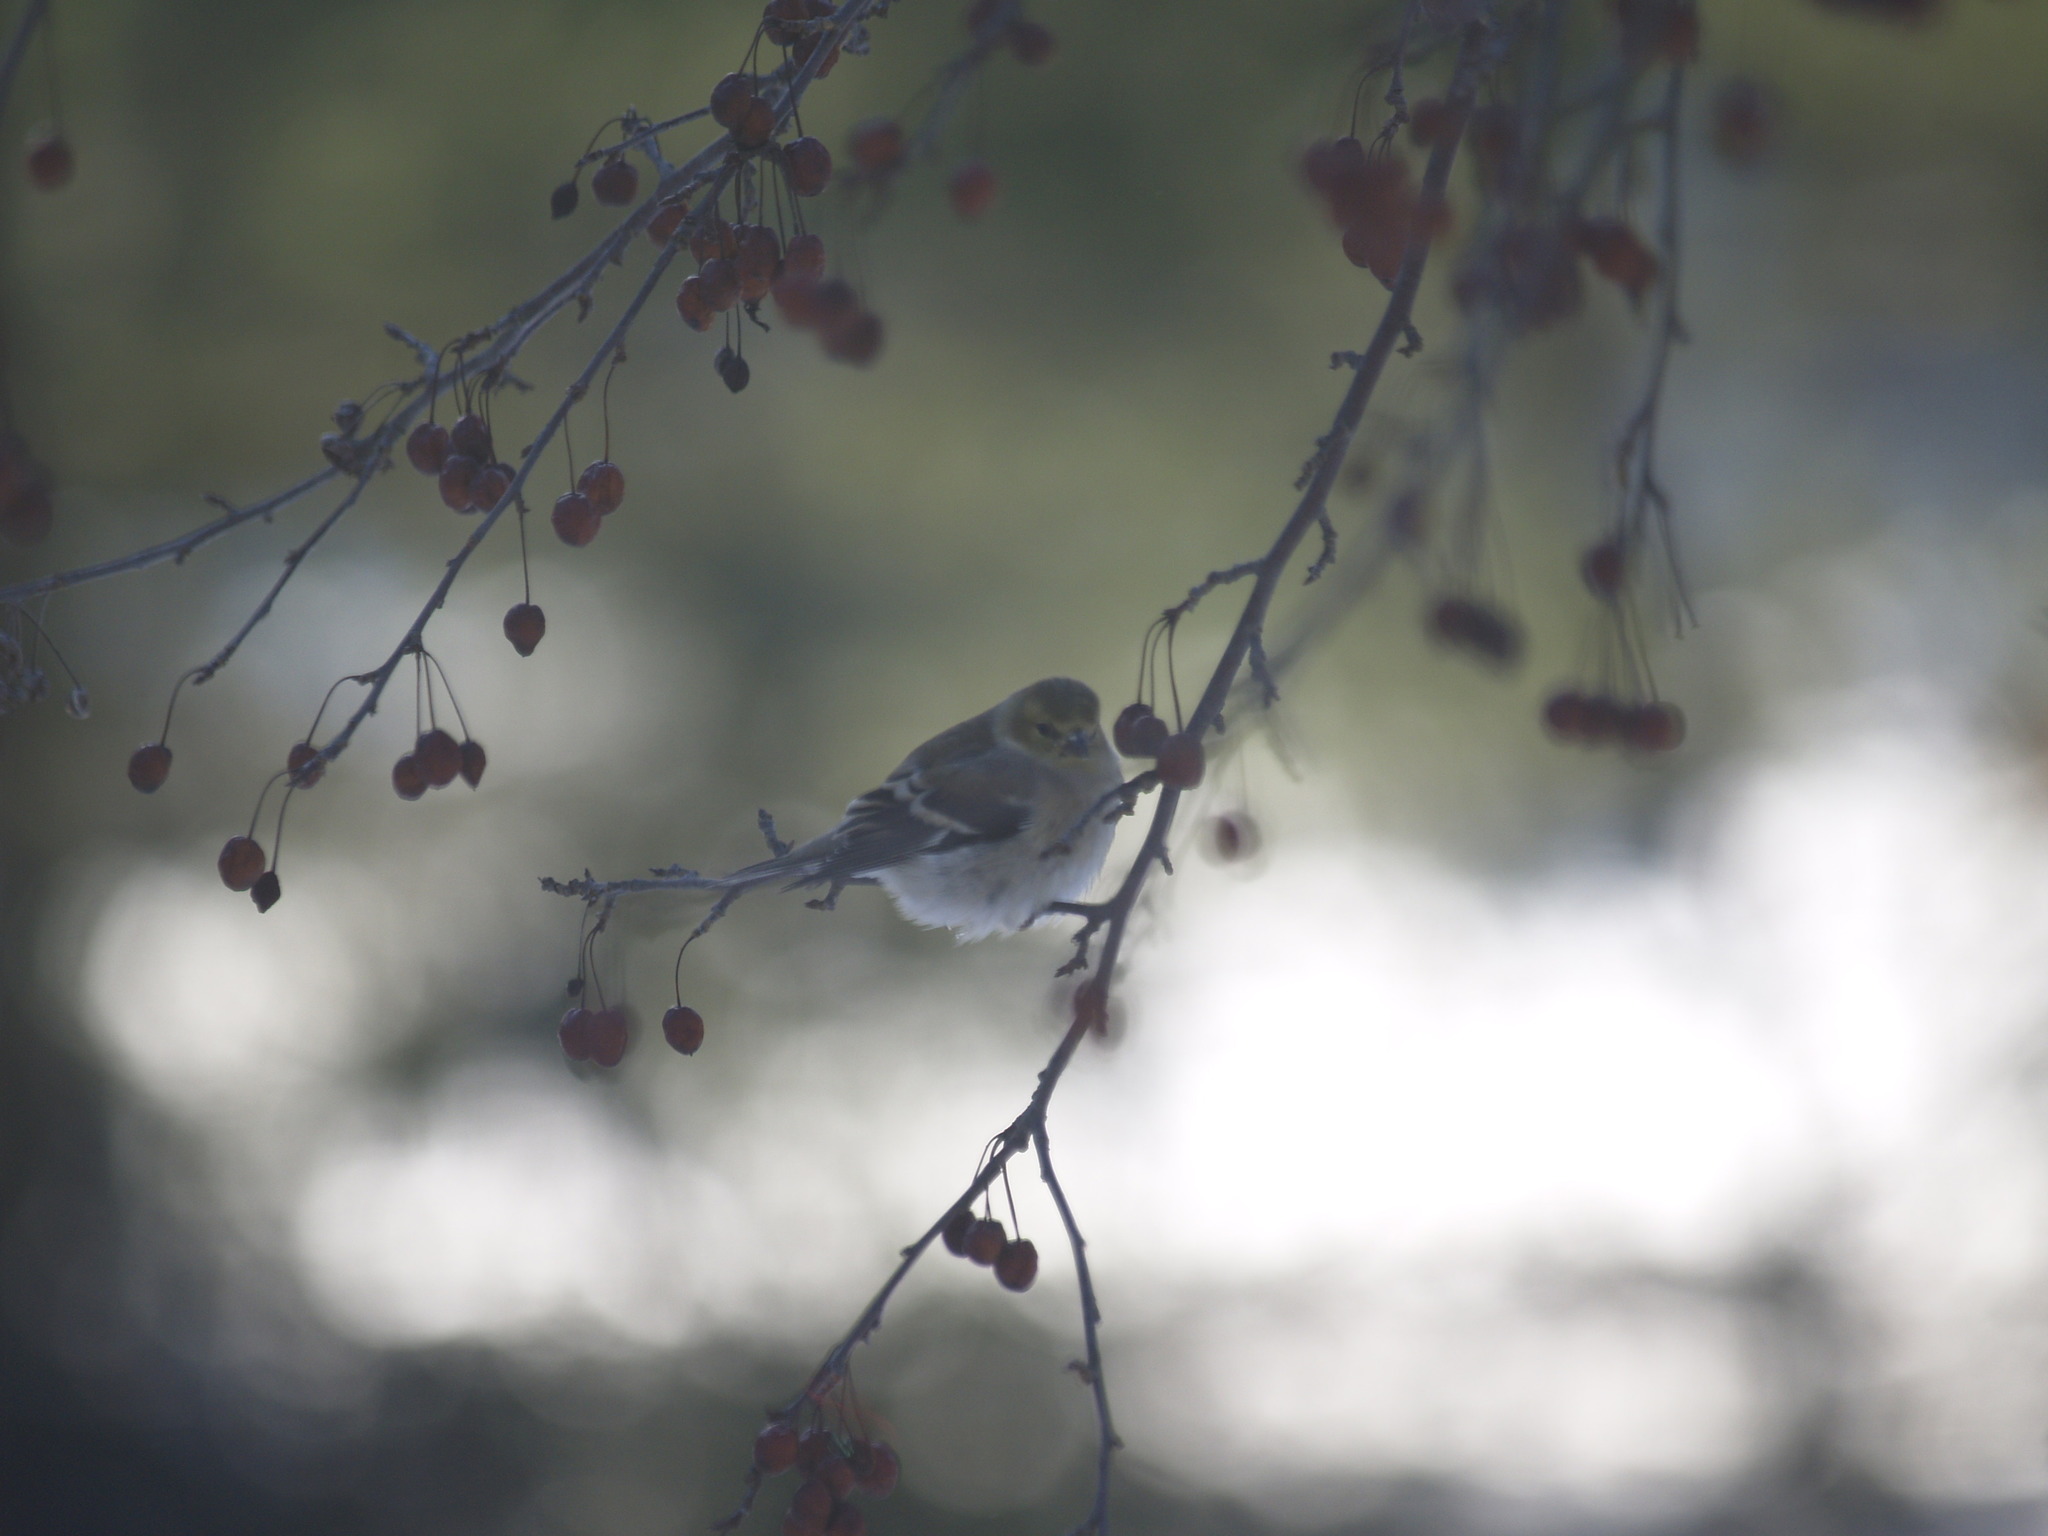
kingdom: Animalia
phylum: Chordata
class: Aves
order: Passeriformes
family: Fringillidae
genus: Spinus
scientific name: Spinus tristis
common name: American goldfinch
